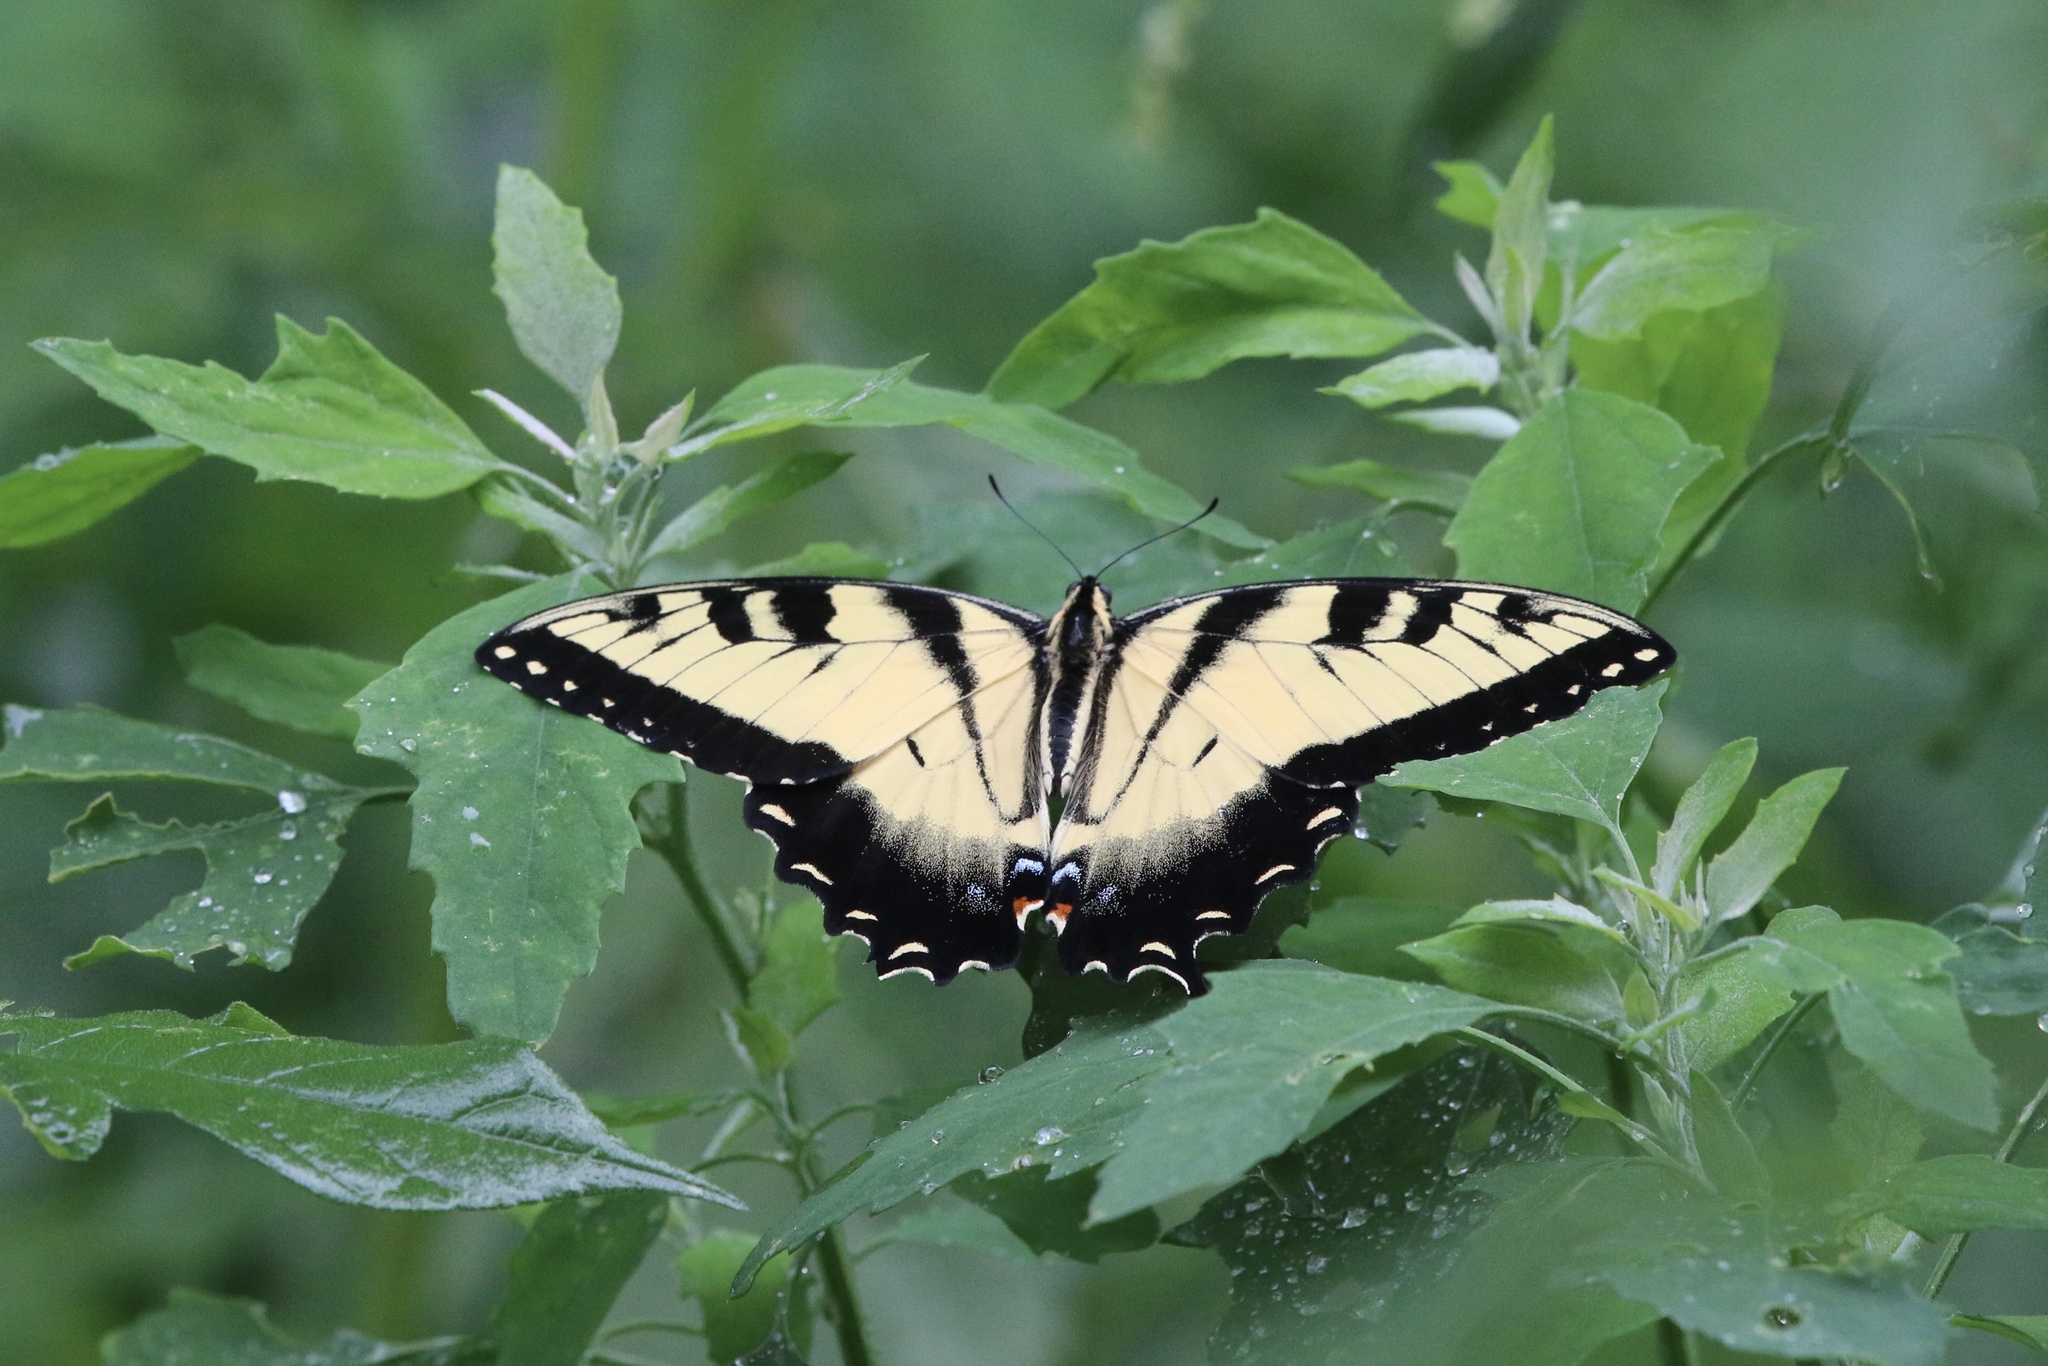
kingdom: Animalia
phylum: Arthropoda
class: Insecta
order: Lepidoptera
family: Papilionidae
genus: Papilio
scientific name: Papilio glaucus
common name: Tiger swallowtail
